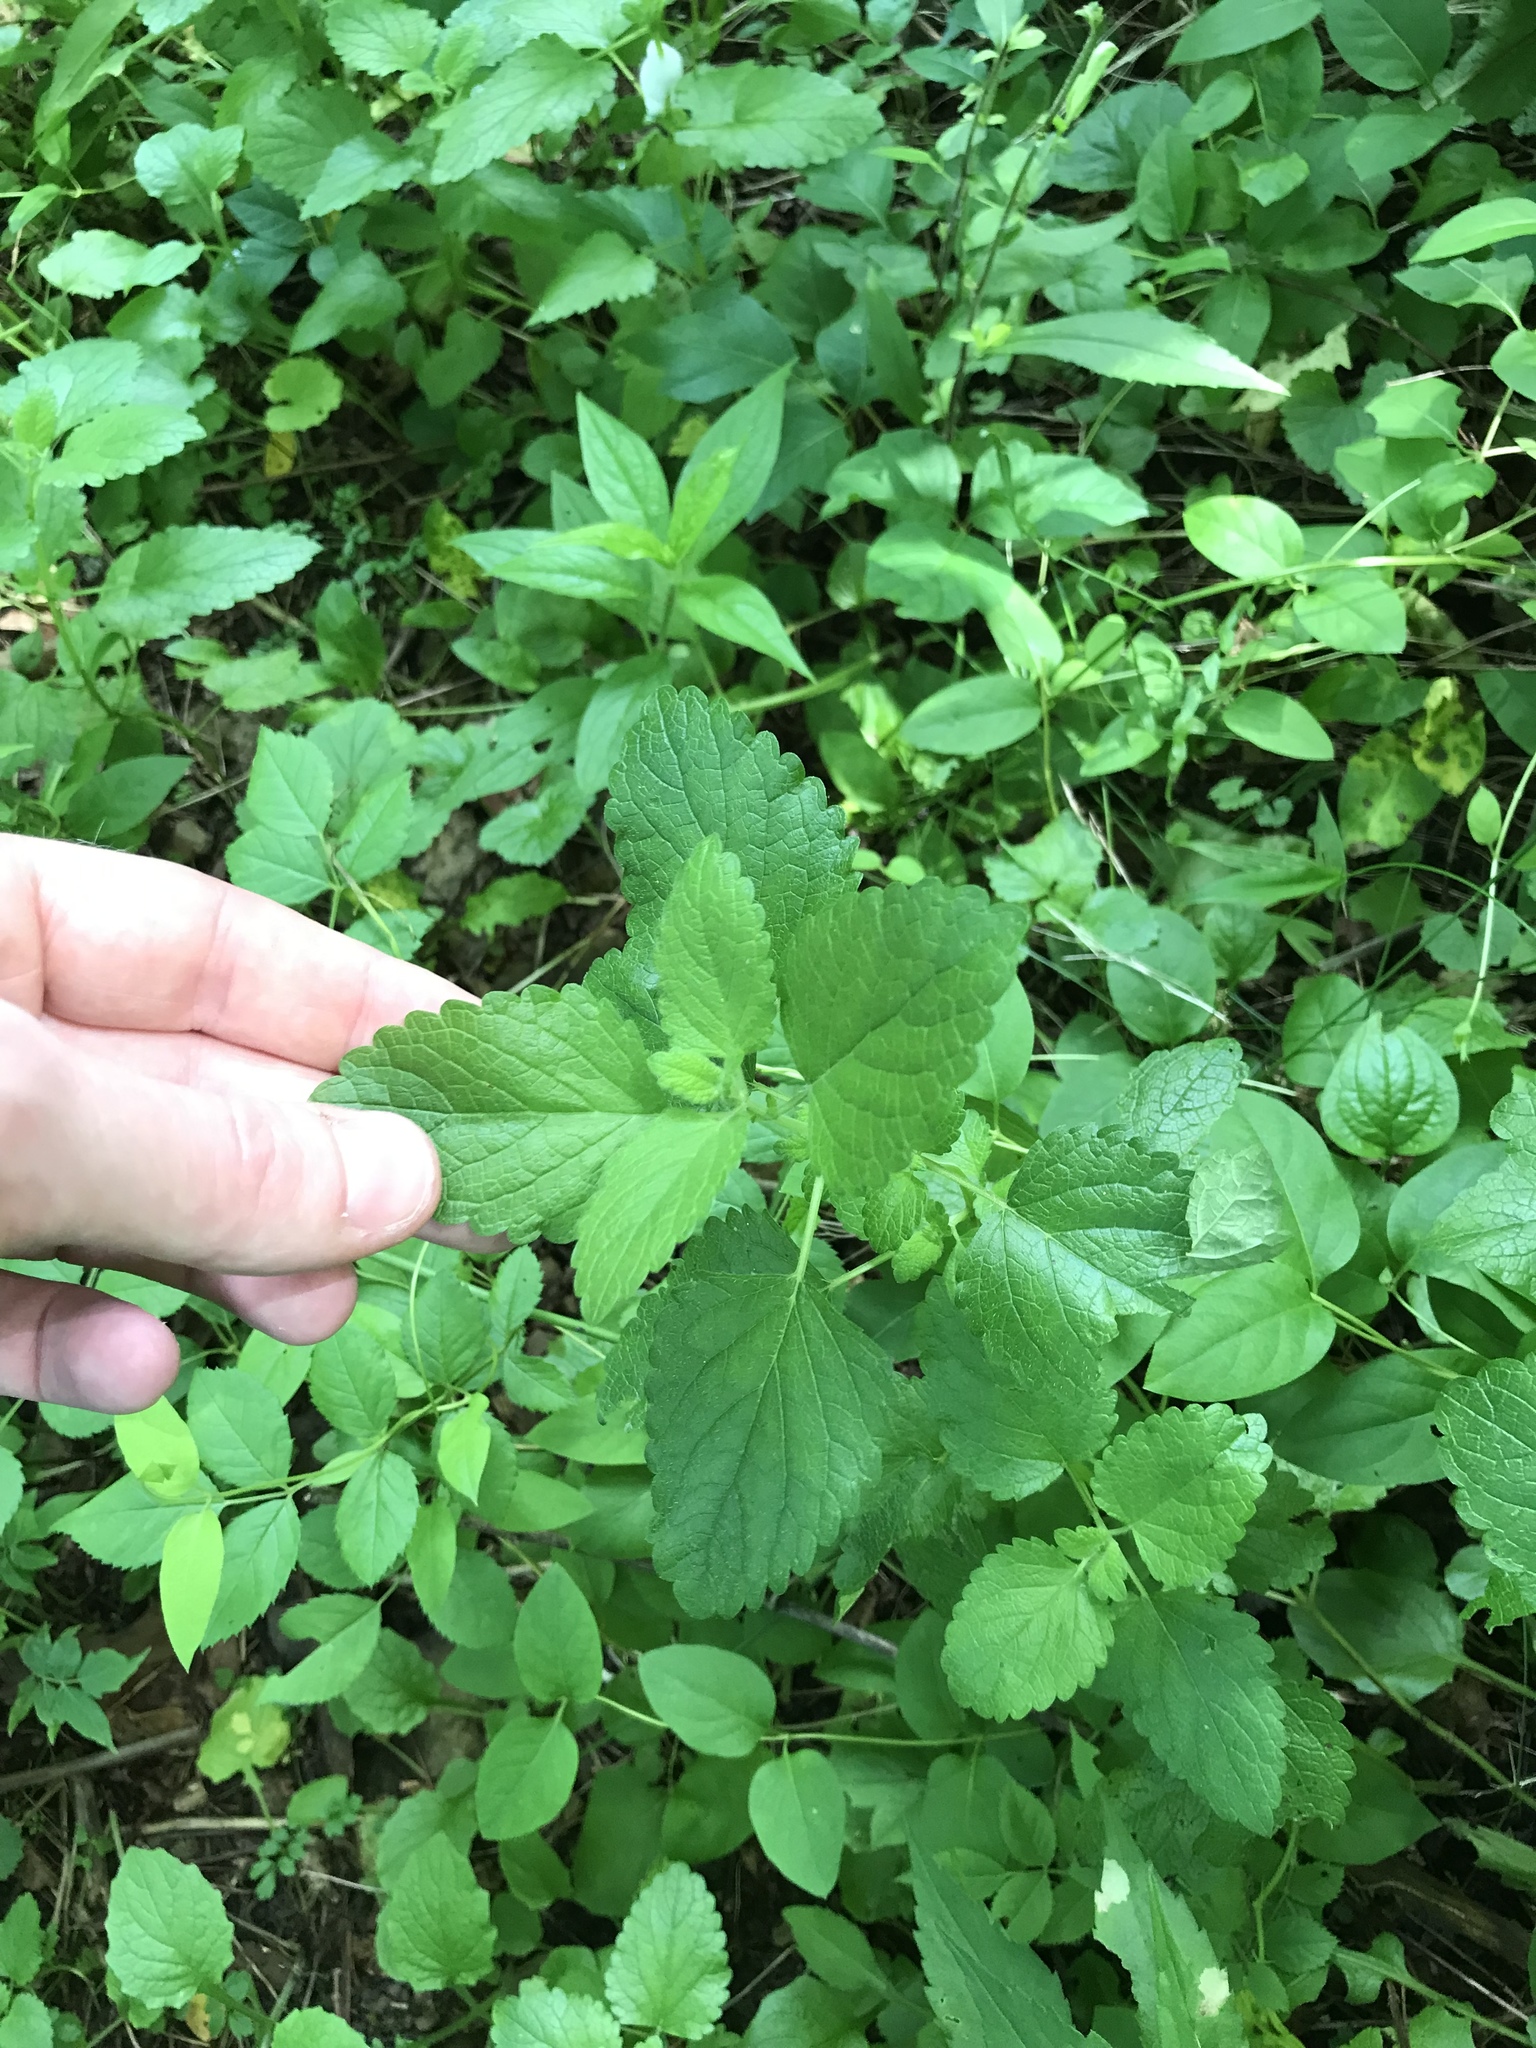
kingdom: Plantae
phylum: Tracheophyta
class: Magnoliopsida
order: Lamiales
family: Lamiaceae
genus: Melissa
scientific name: Melissa officinalis
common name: Balm
